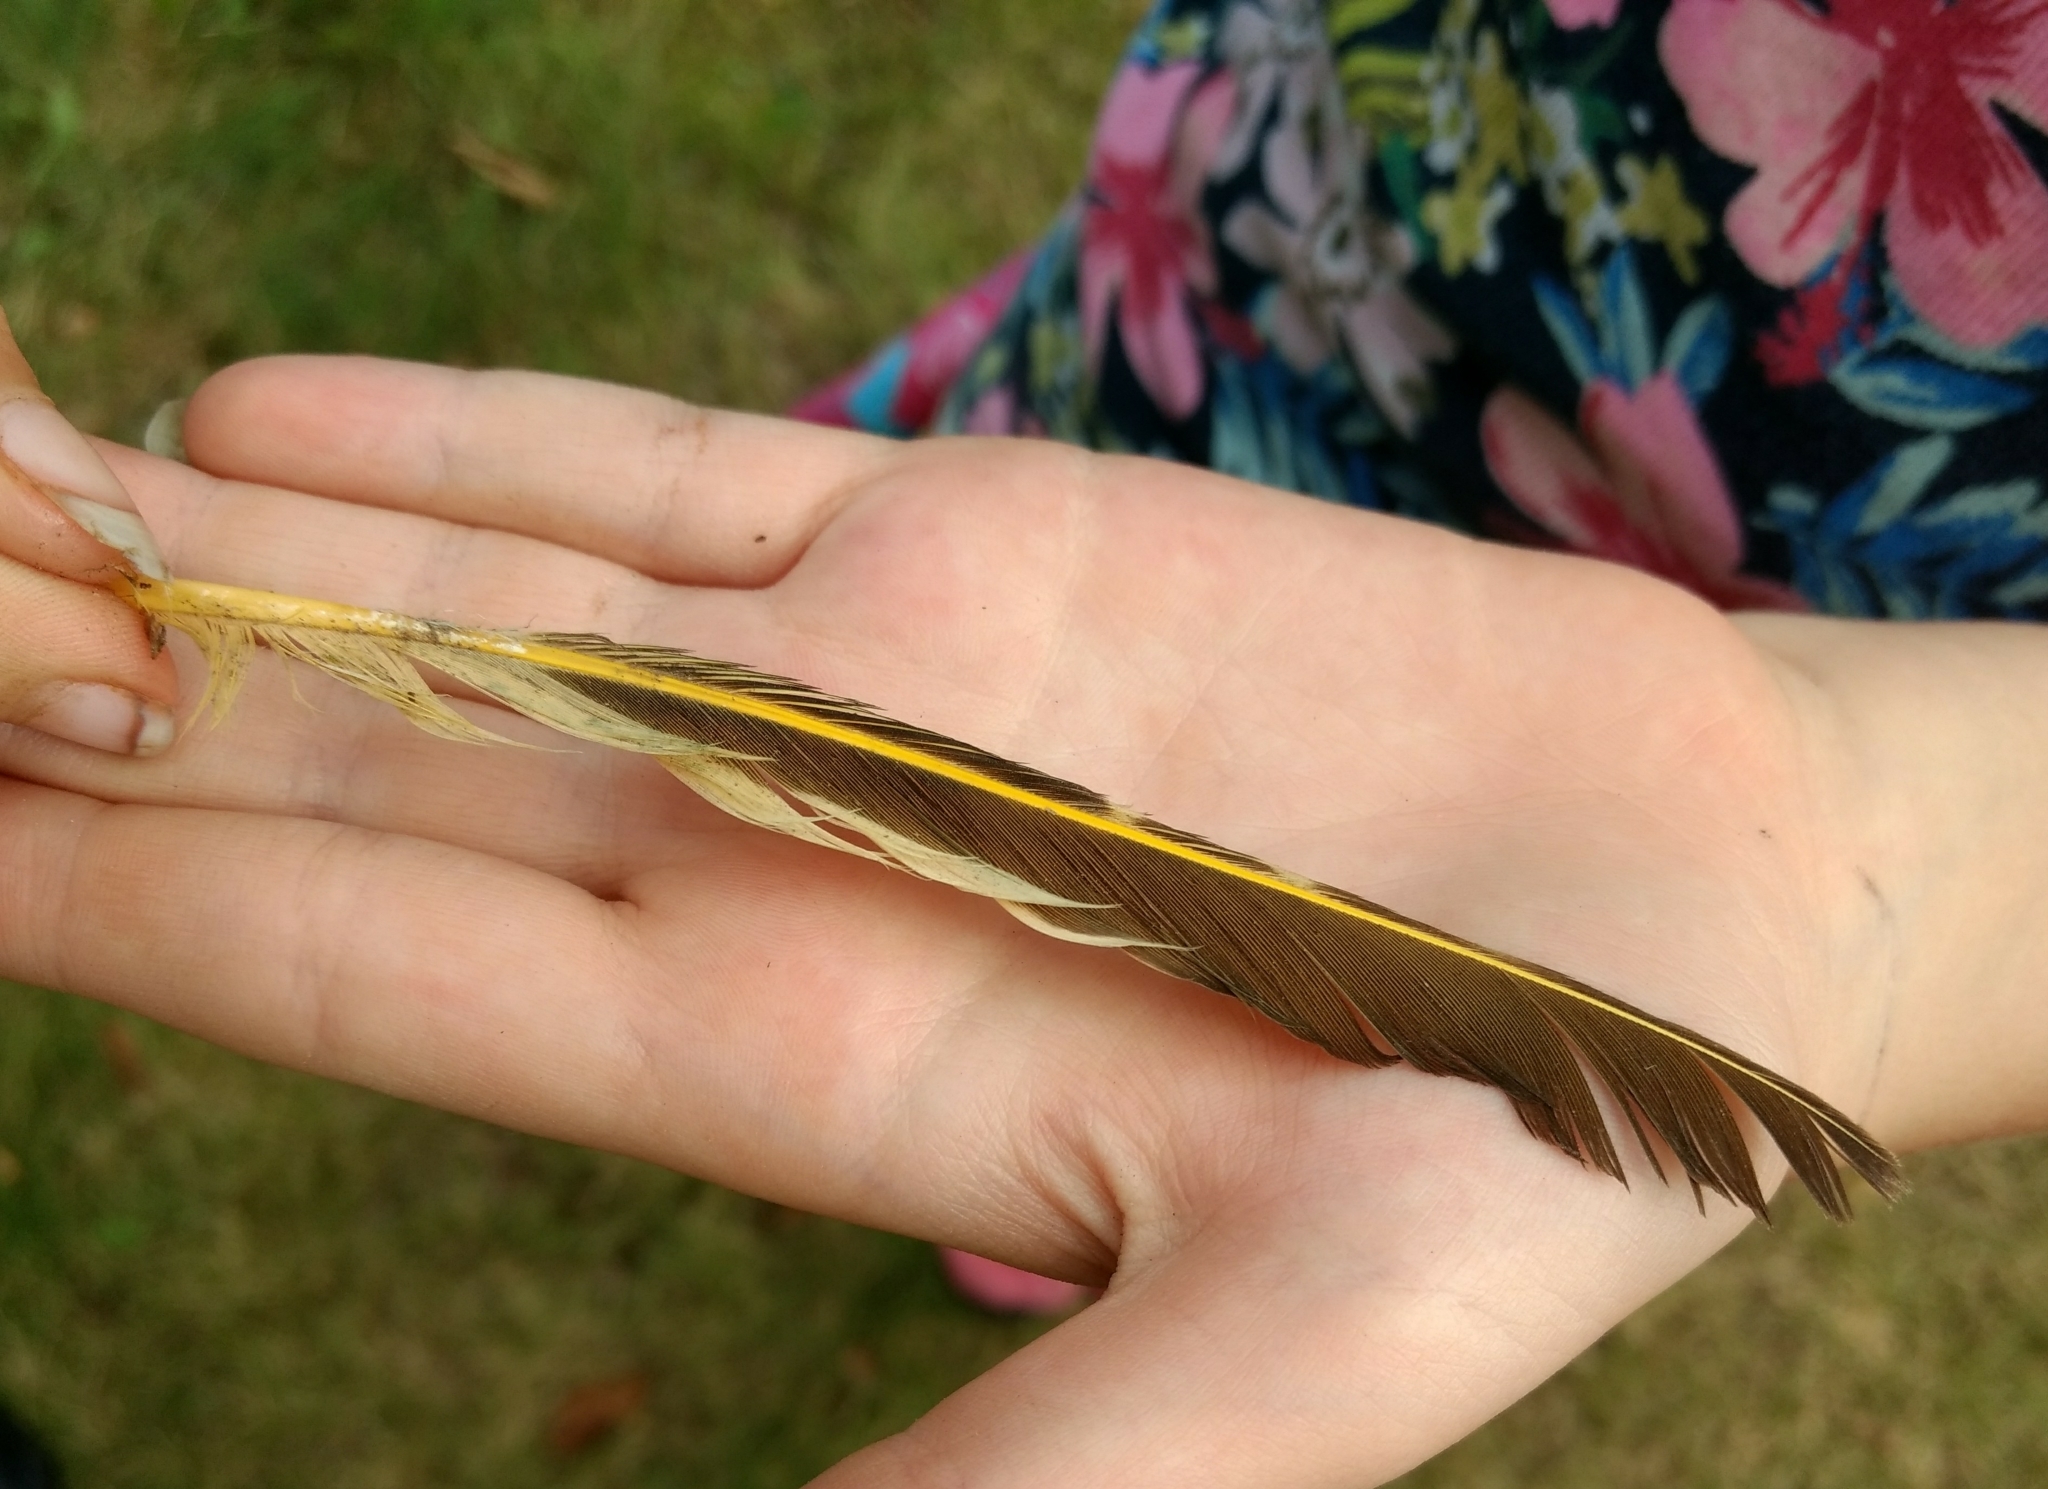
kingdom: Animalia
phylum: Chordata
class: Aves
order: Piciformes
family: Picidae
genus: Colaptes
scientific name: Colaptes auratus
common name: Northern flicker
